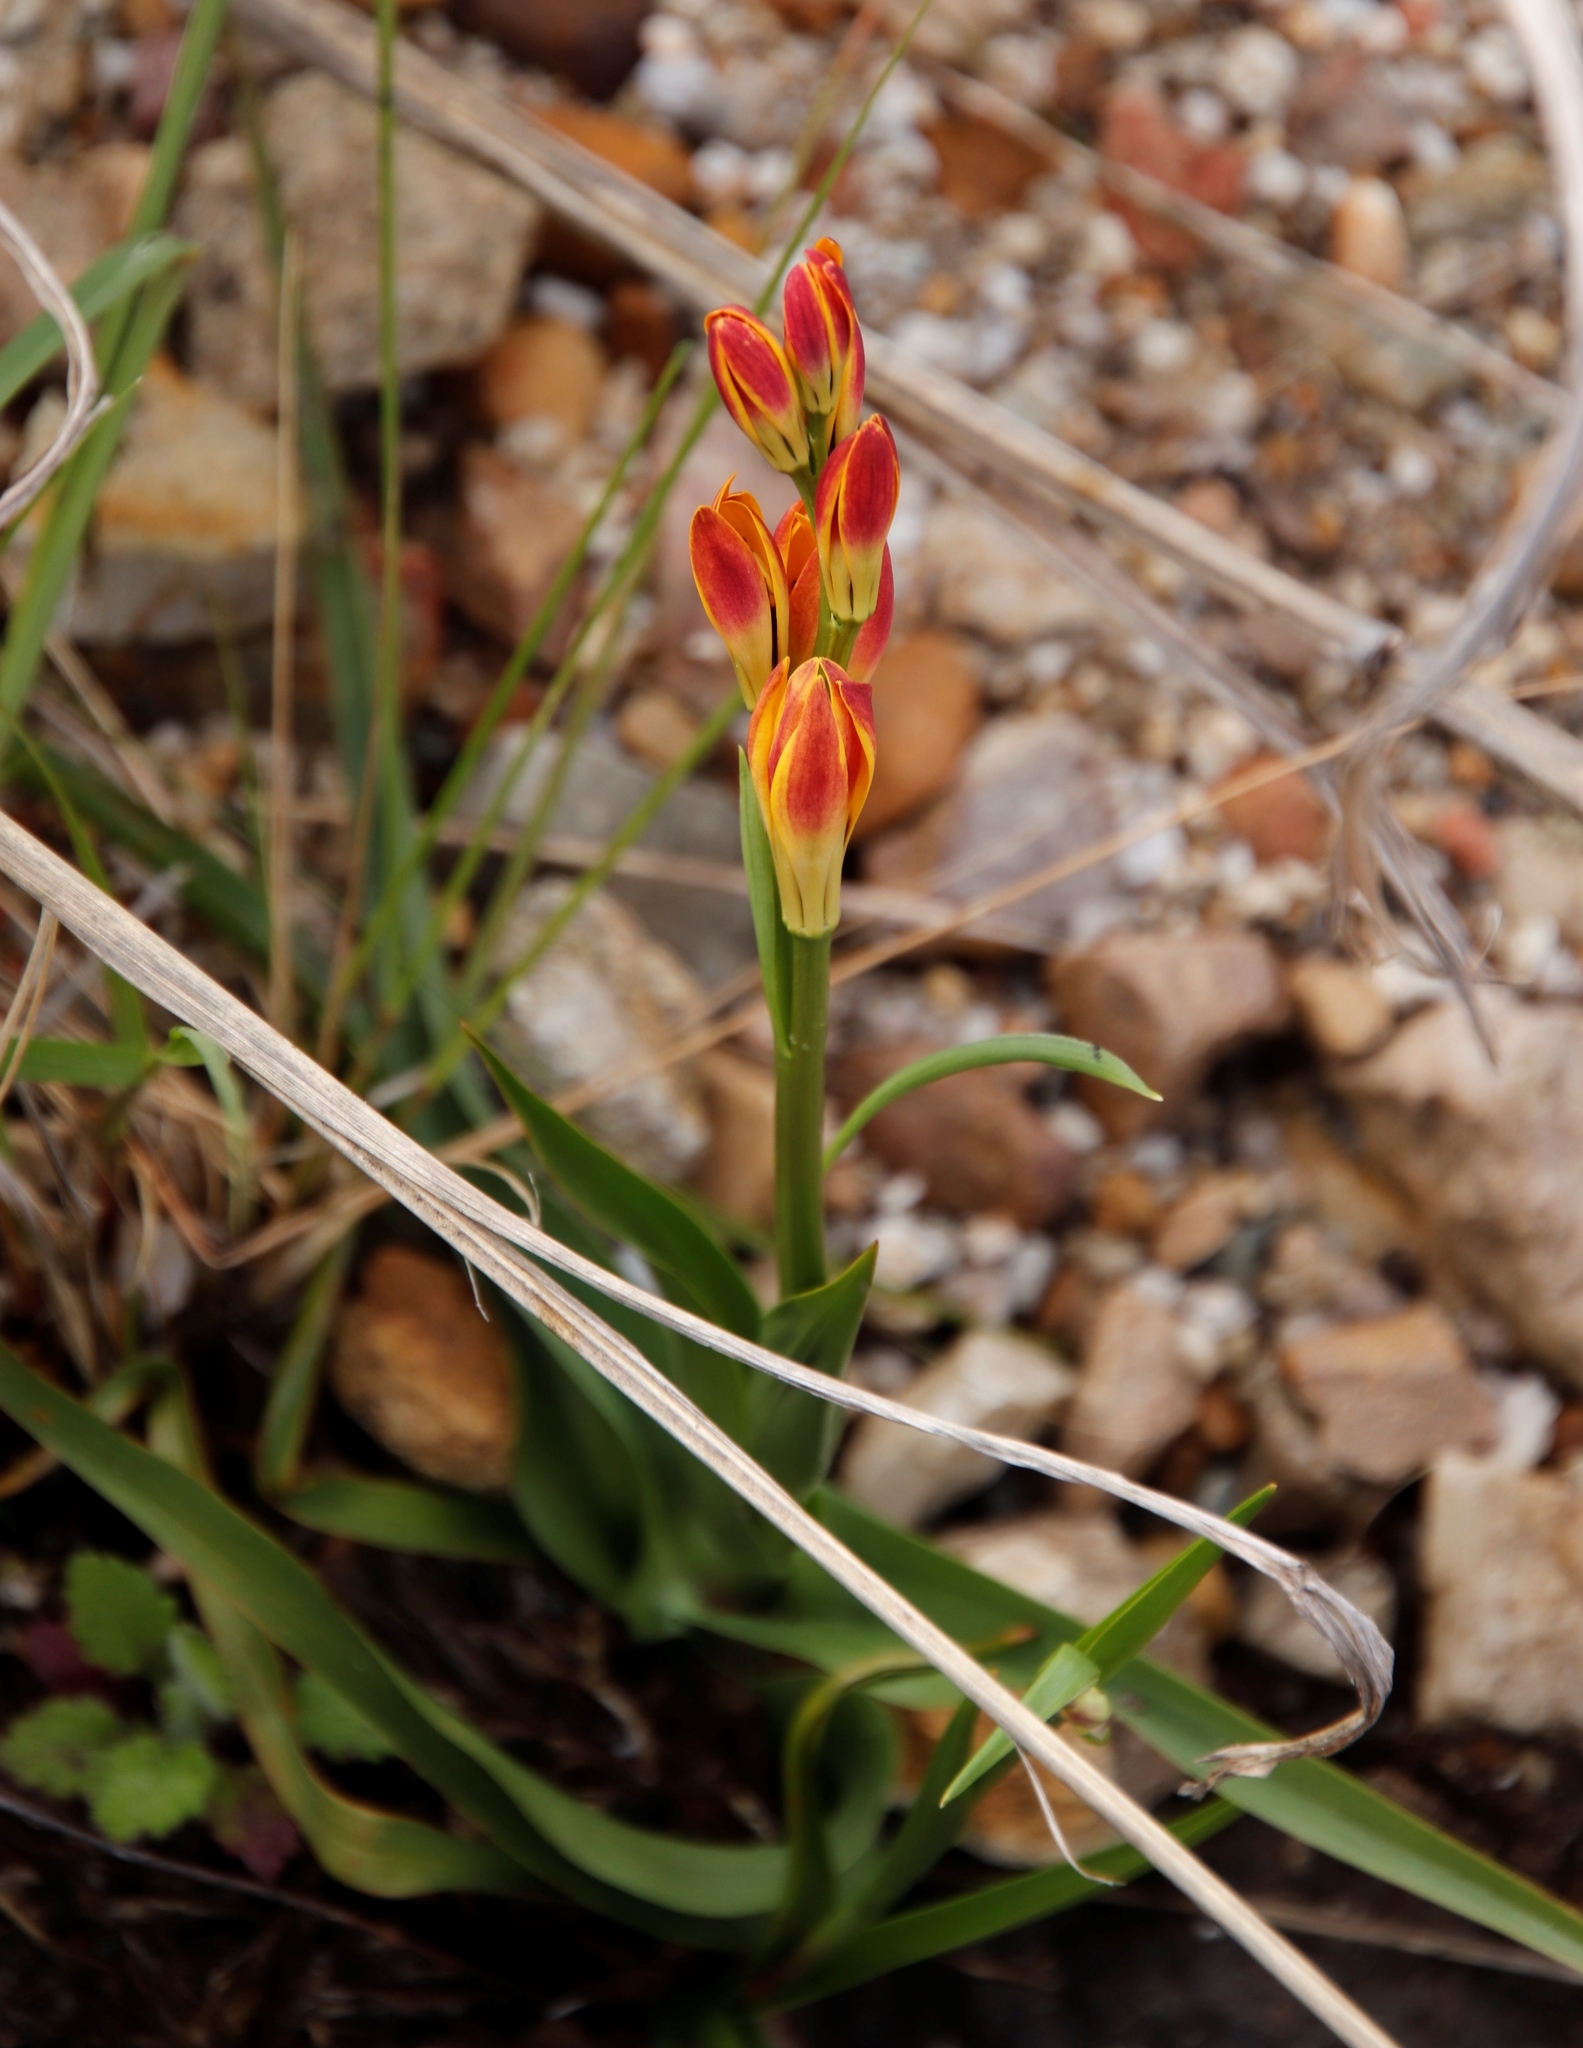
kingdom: Plantae
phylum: Tracheophyta
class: Liliopsida
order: Liliales
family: Colchicaceae
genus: Baeometra
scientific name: Baeometra uniflora
